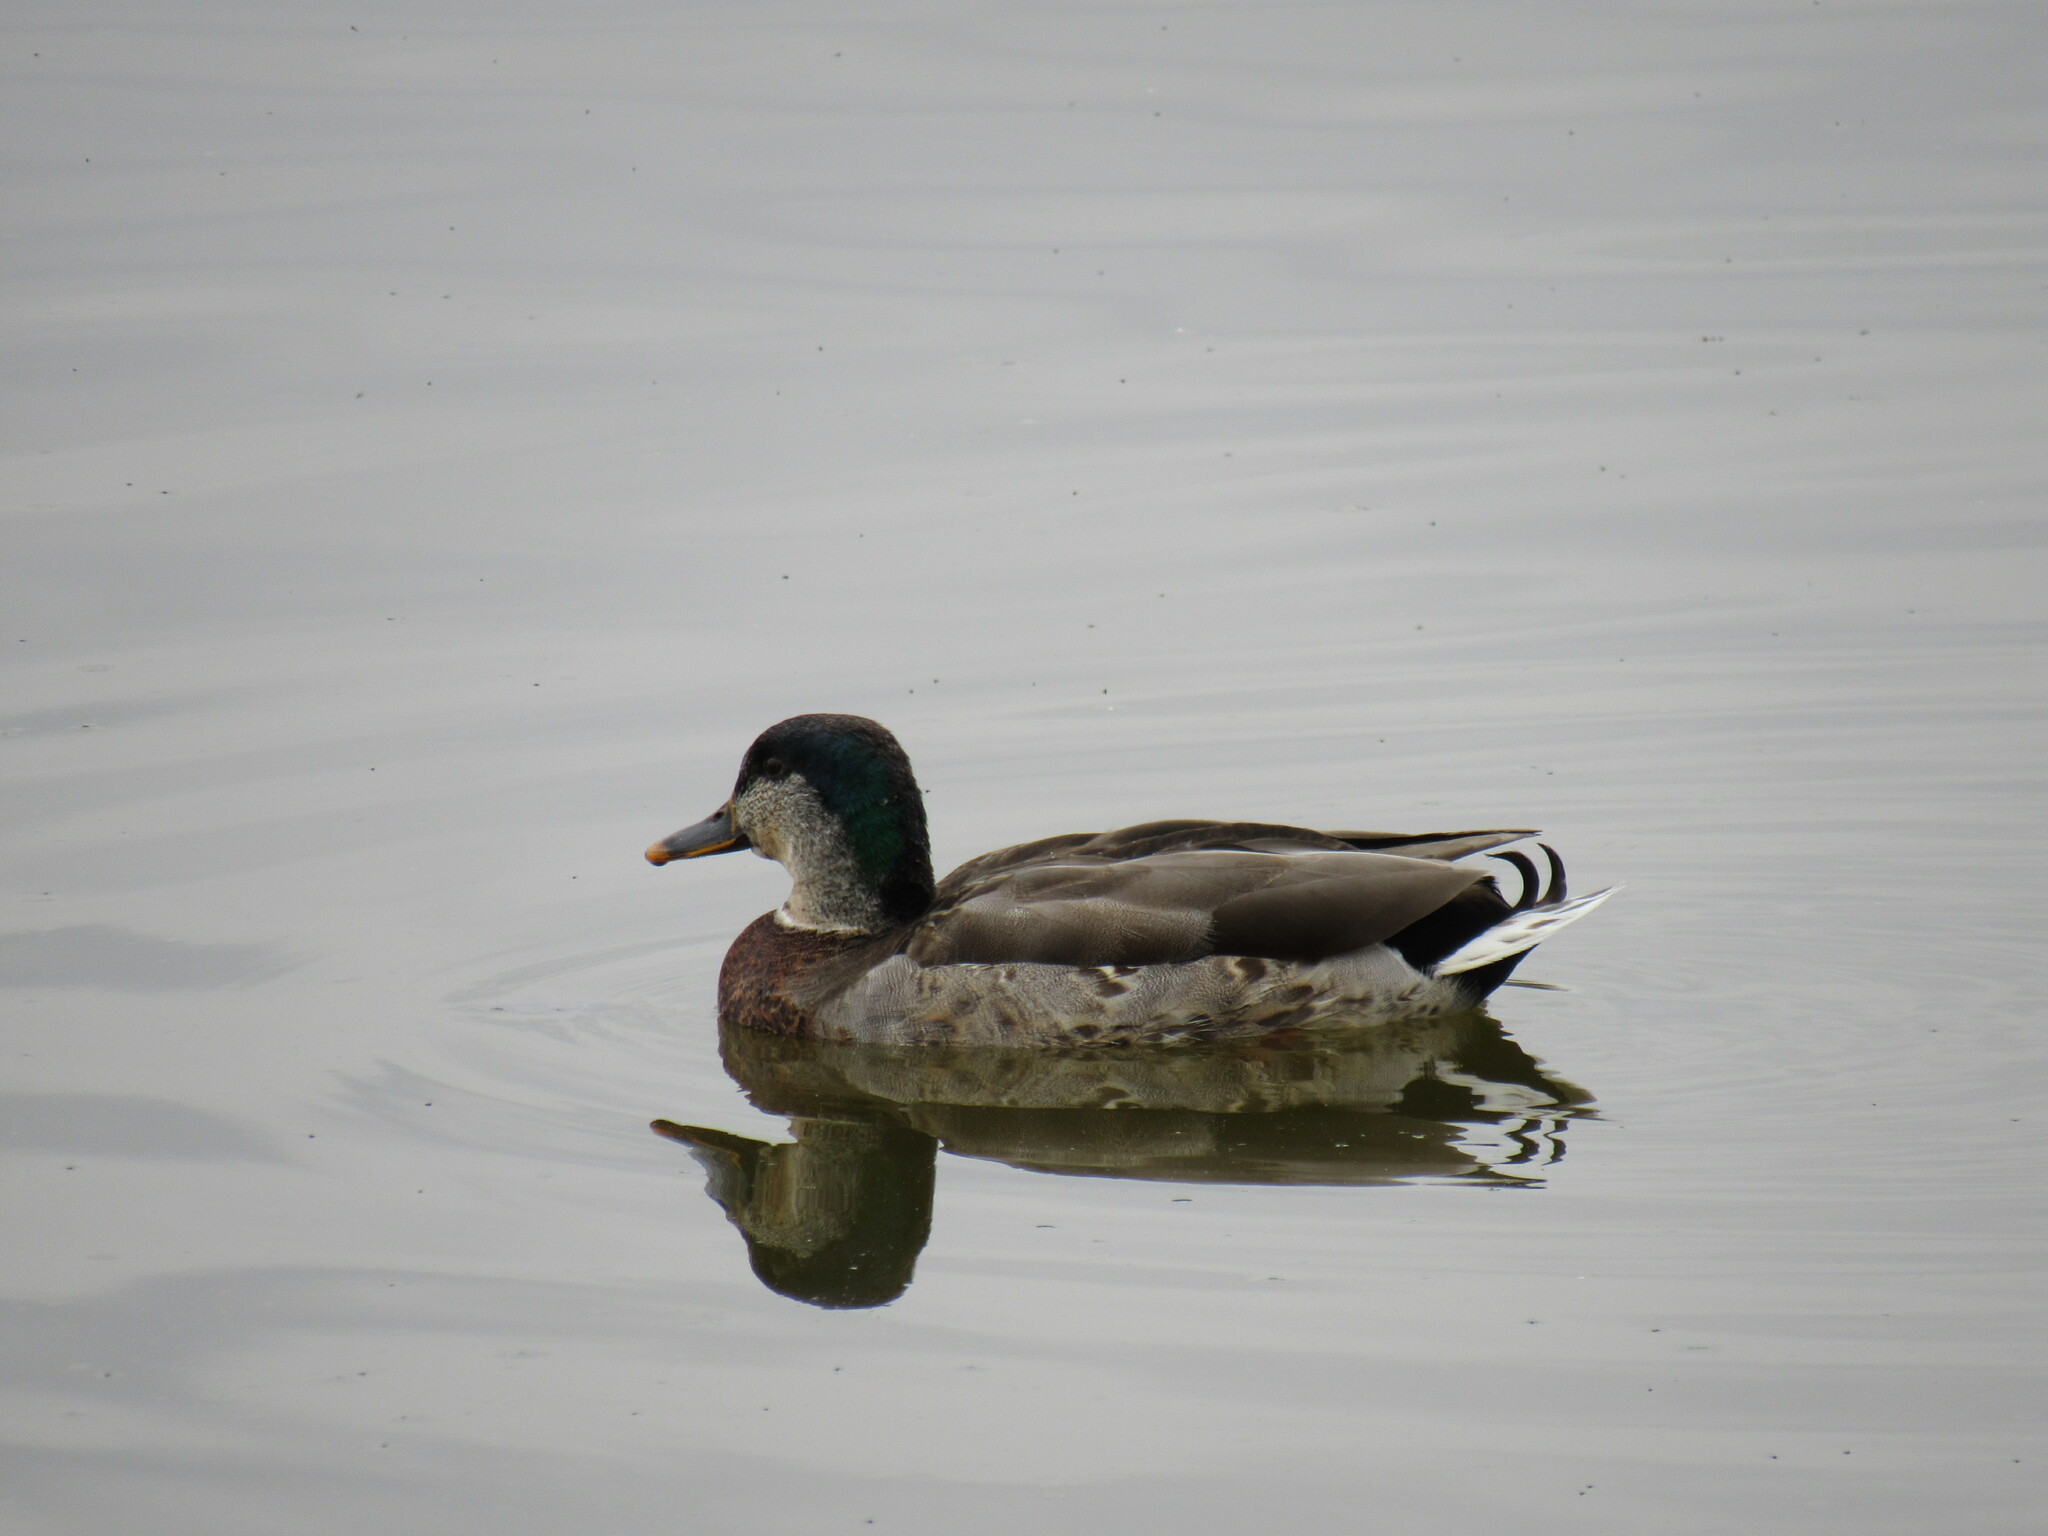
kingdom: Animalia
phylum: Chordata
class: Aves
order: Anseriformes
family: Anatidae
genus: Anas
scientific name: Anas platyrhynchos
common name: Mallard
